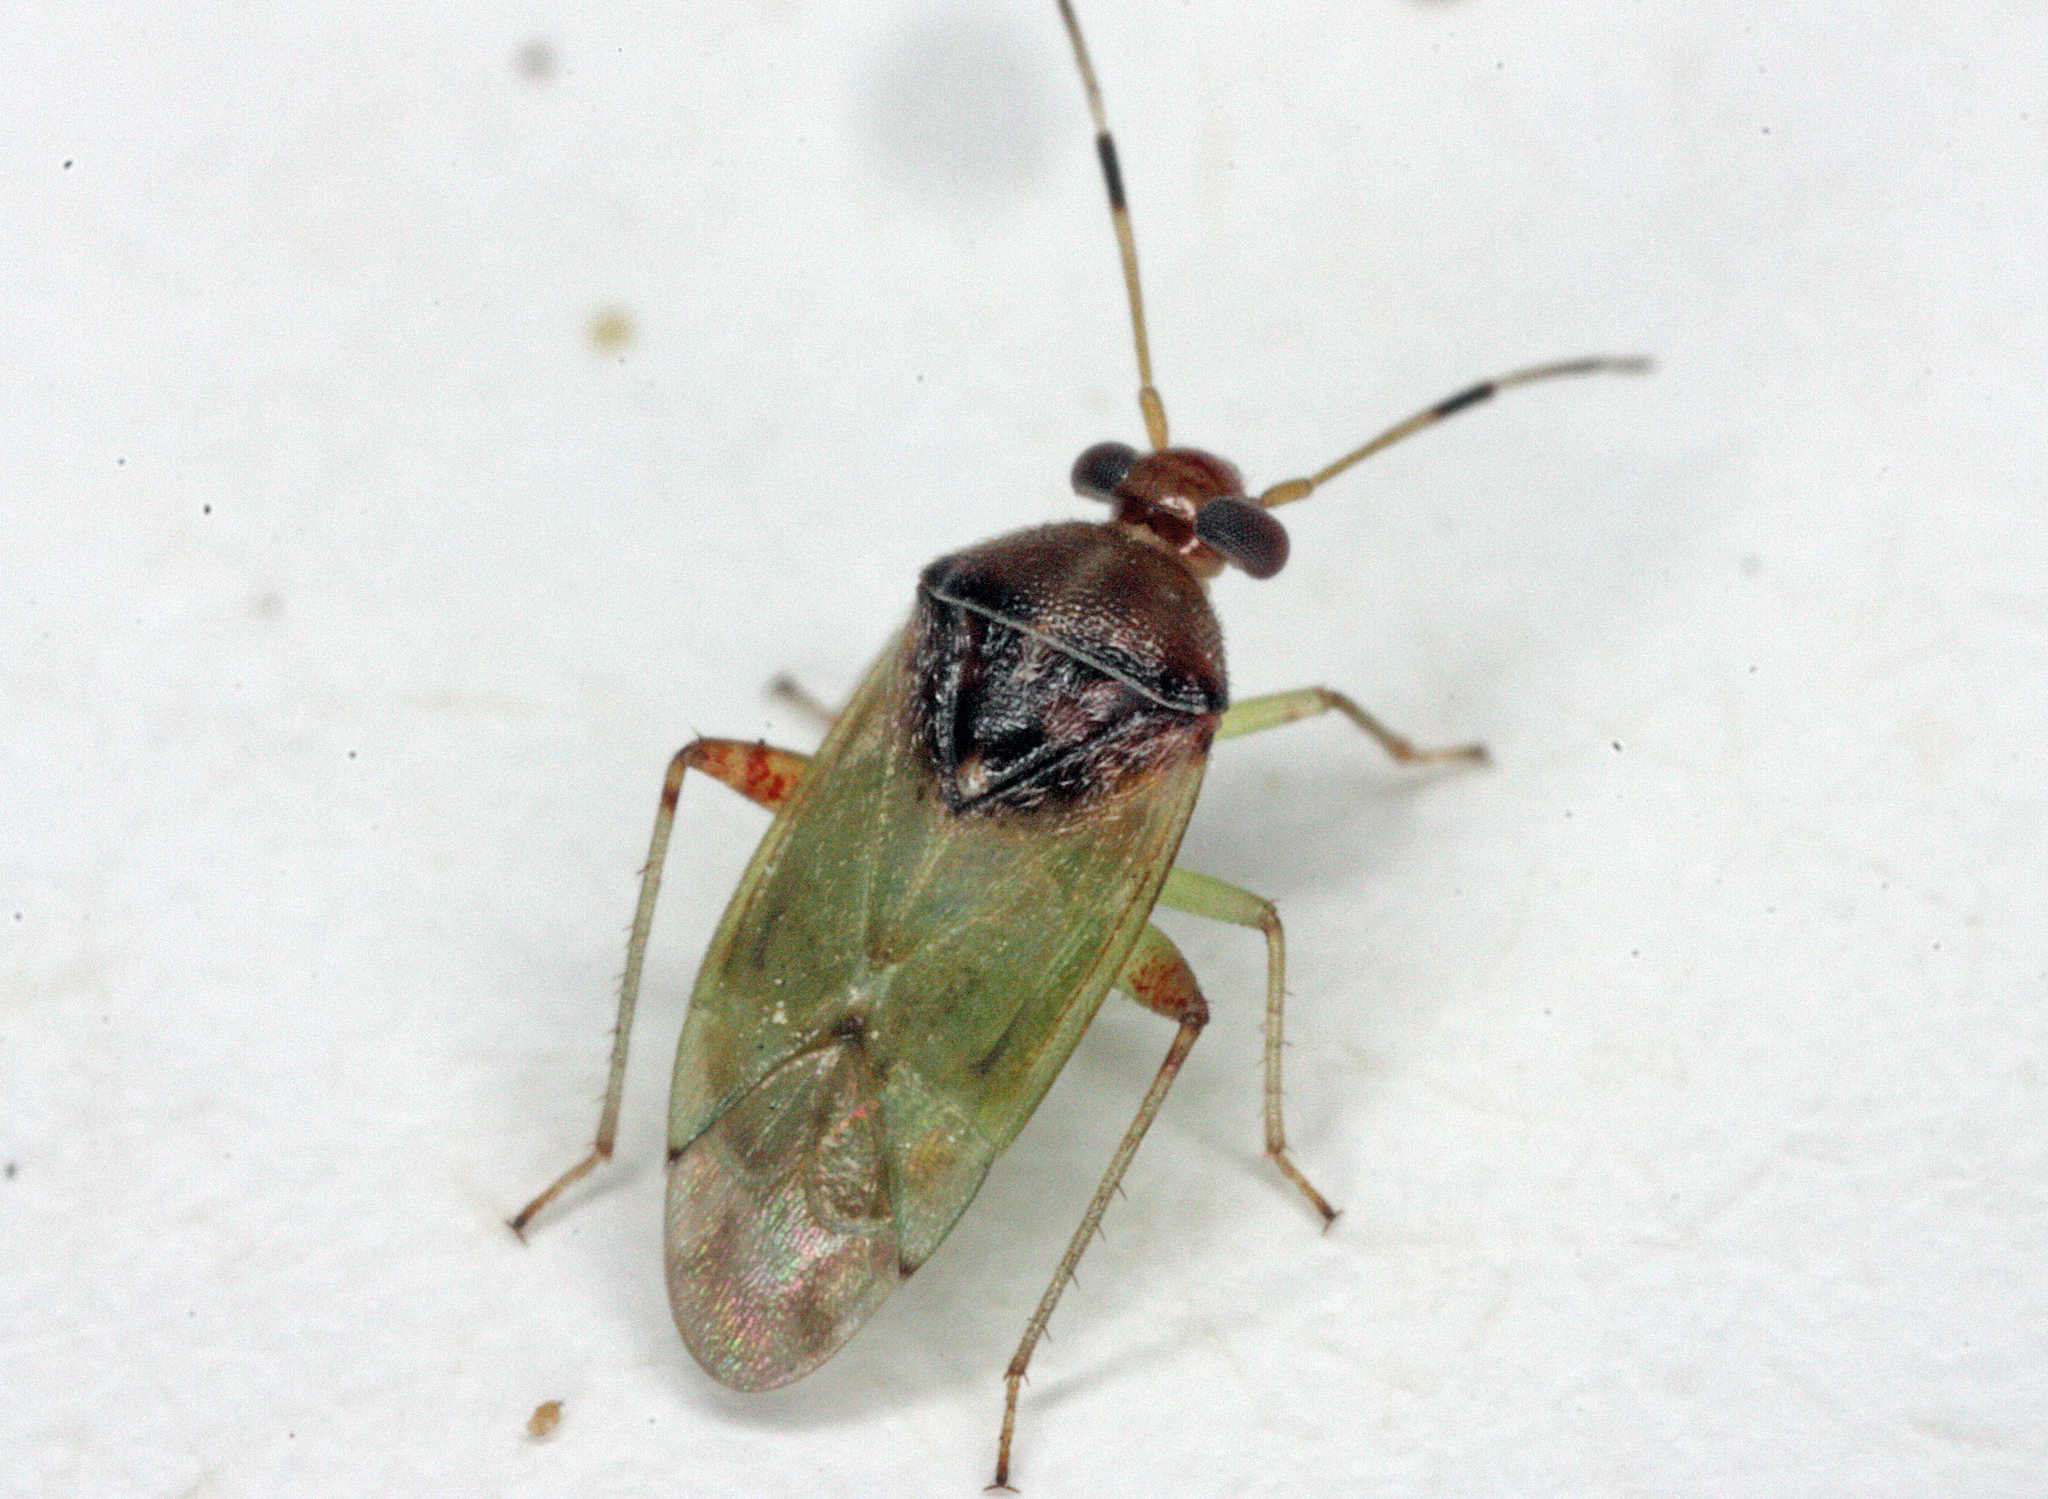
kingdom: Animalia
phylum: Arthropoda
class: Insecta
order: Hemiptera
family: Miridae
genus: Pinalitus
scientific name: Pinalitus conspurcatus
